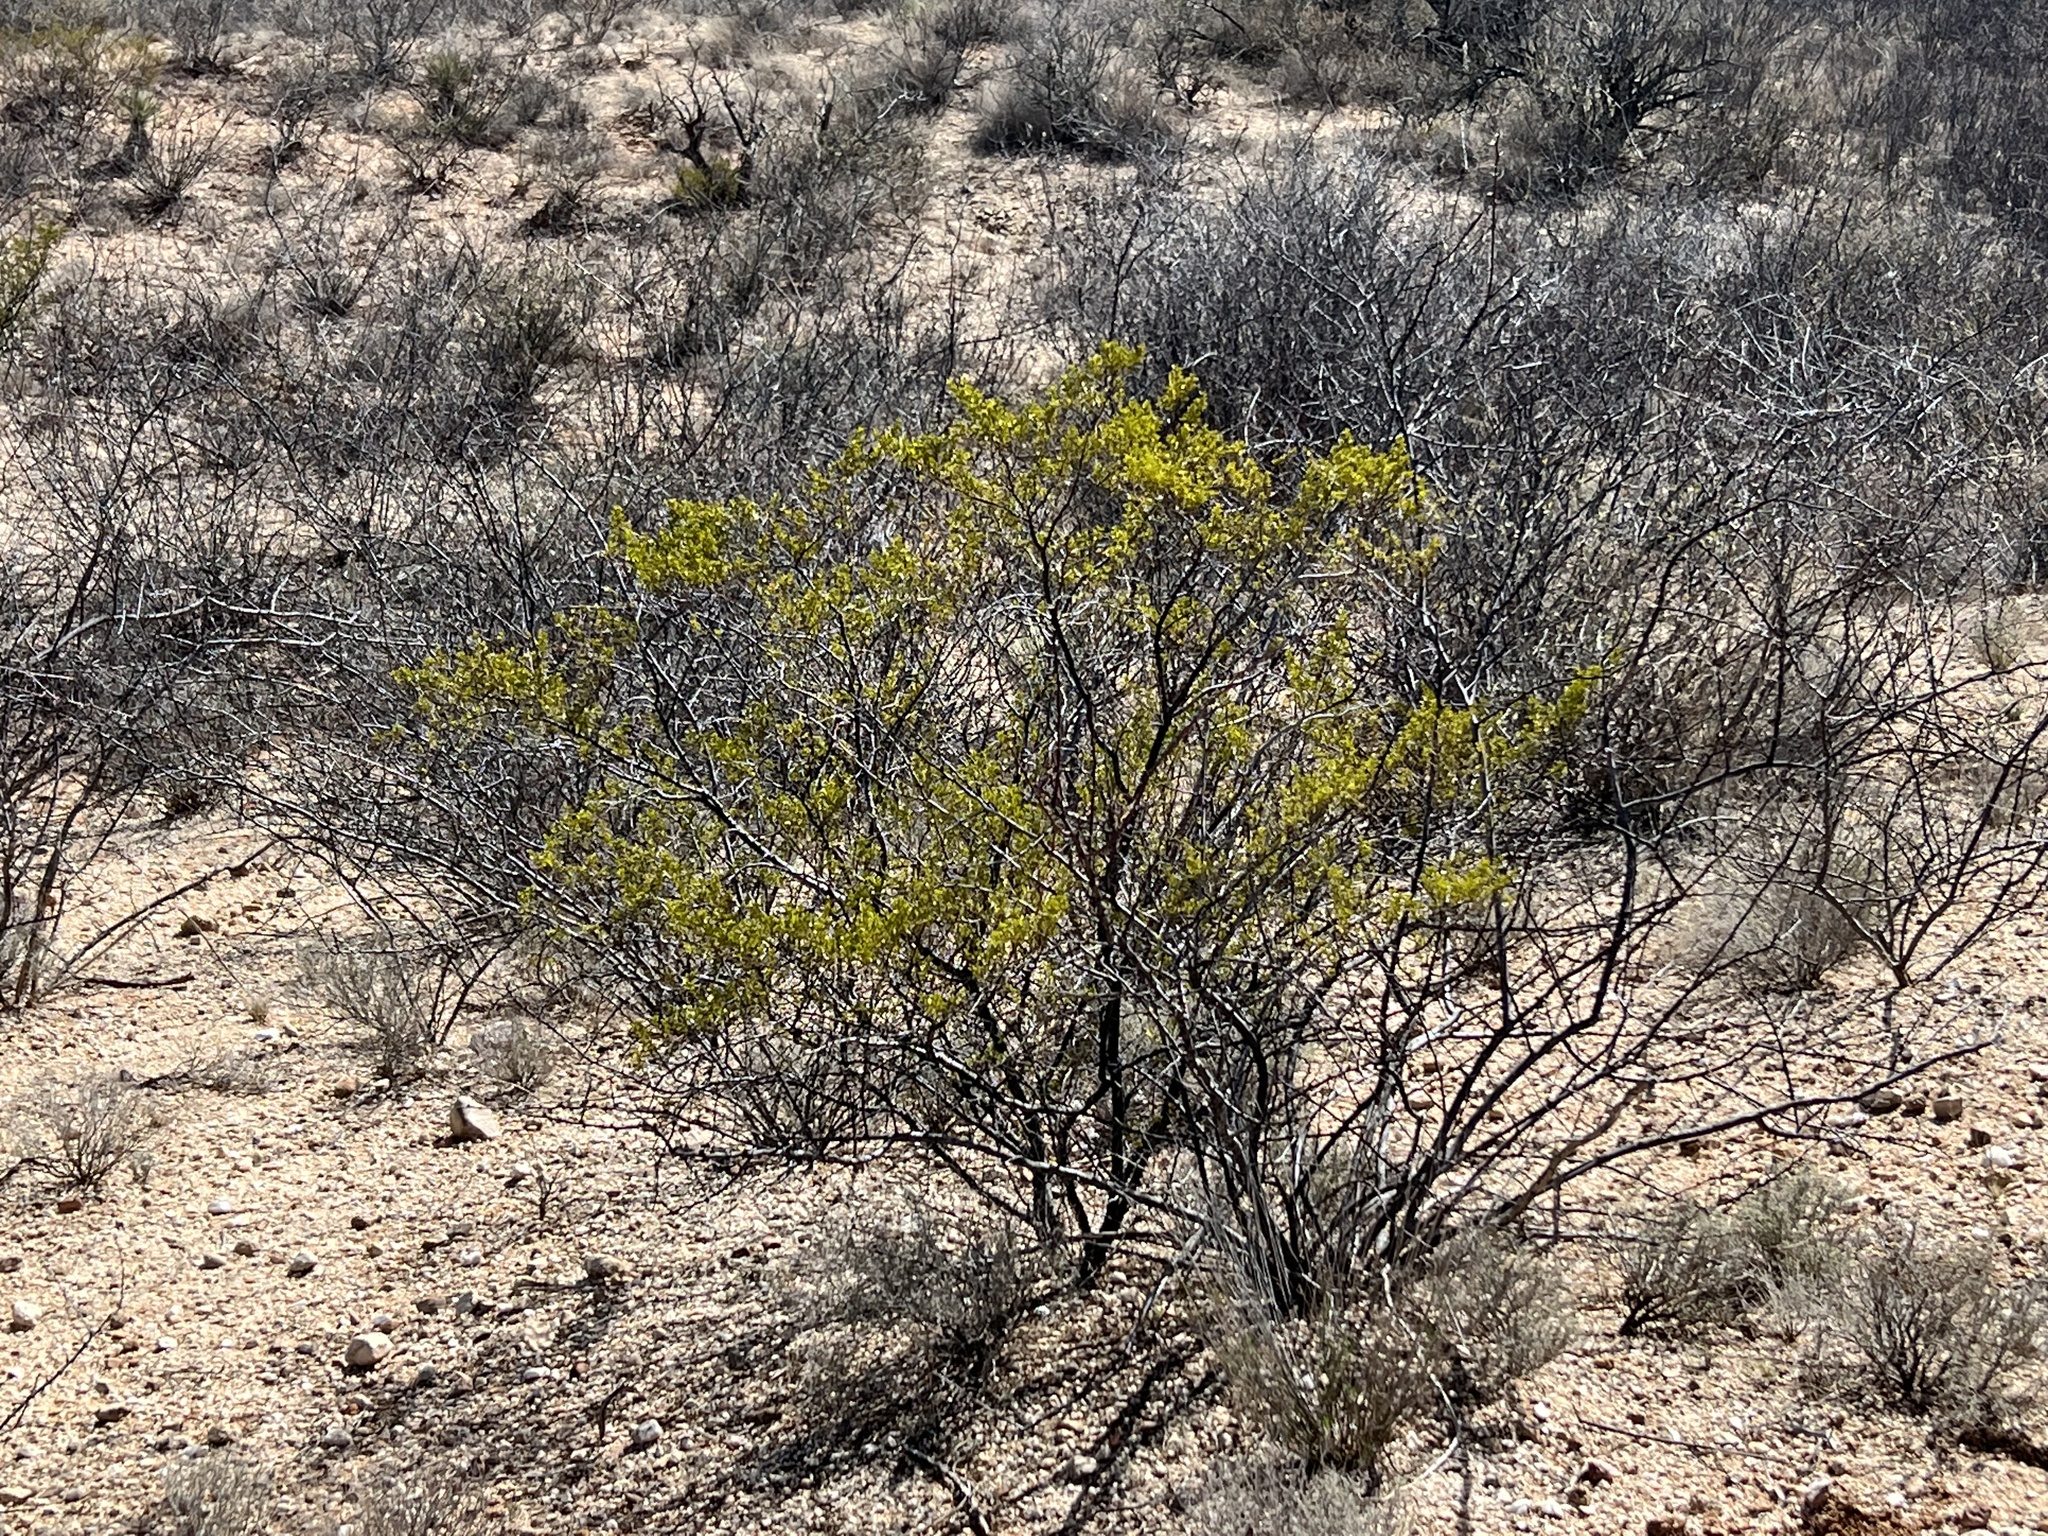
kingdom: Plantae
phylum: Tracheophyta
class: Magnoliopsida
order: Zygophyllales
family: Zygophyllaceae
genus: Larrea
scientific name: Larrea tridentata
